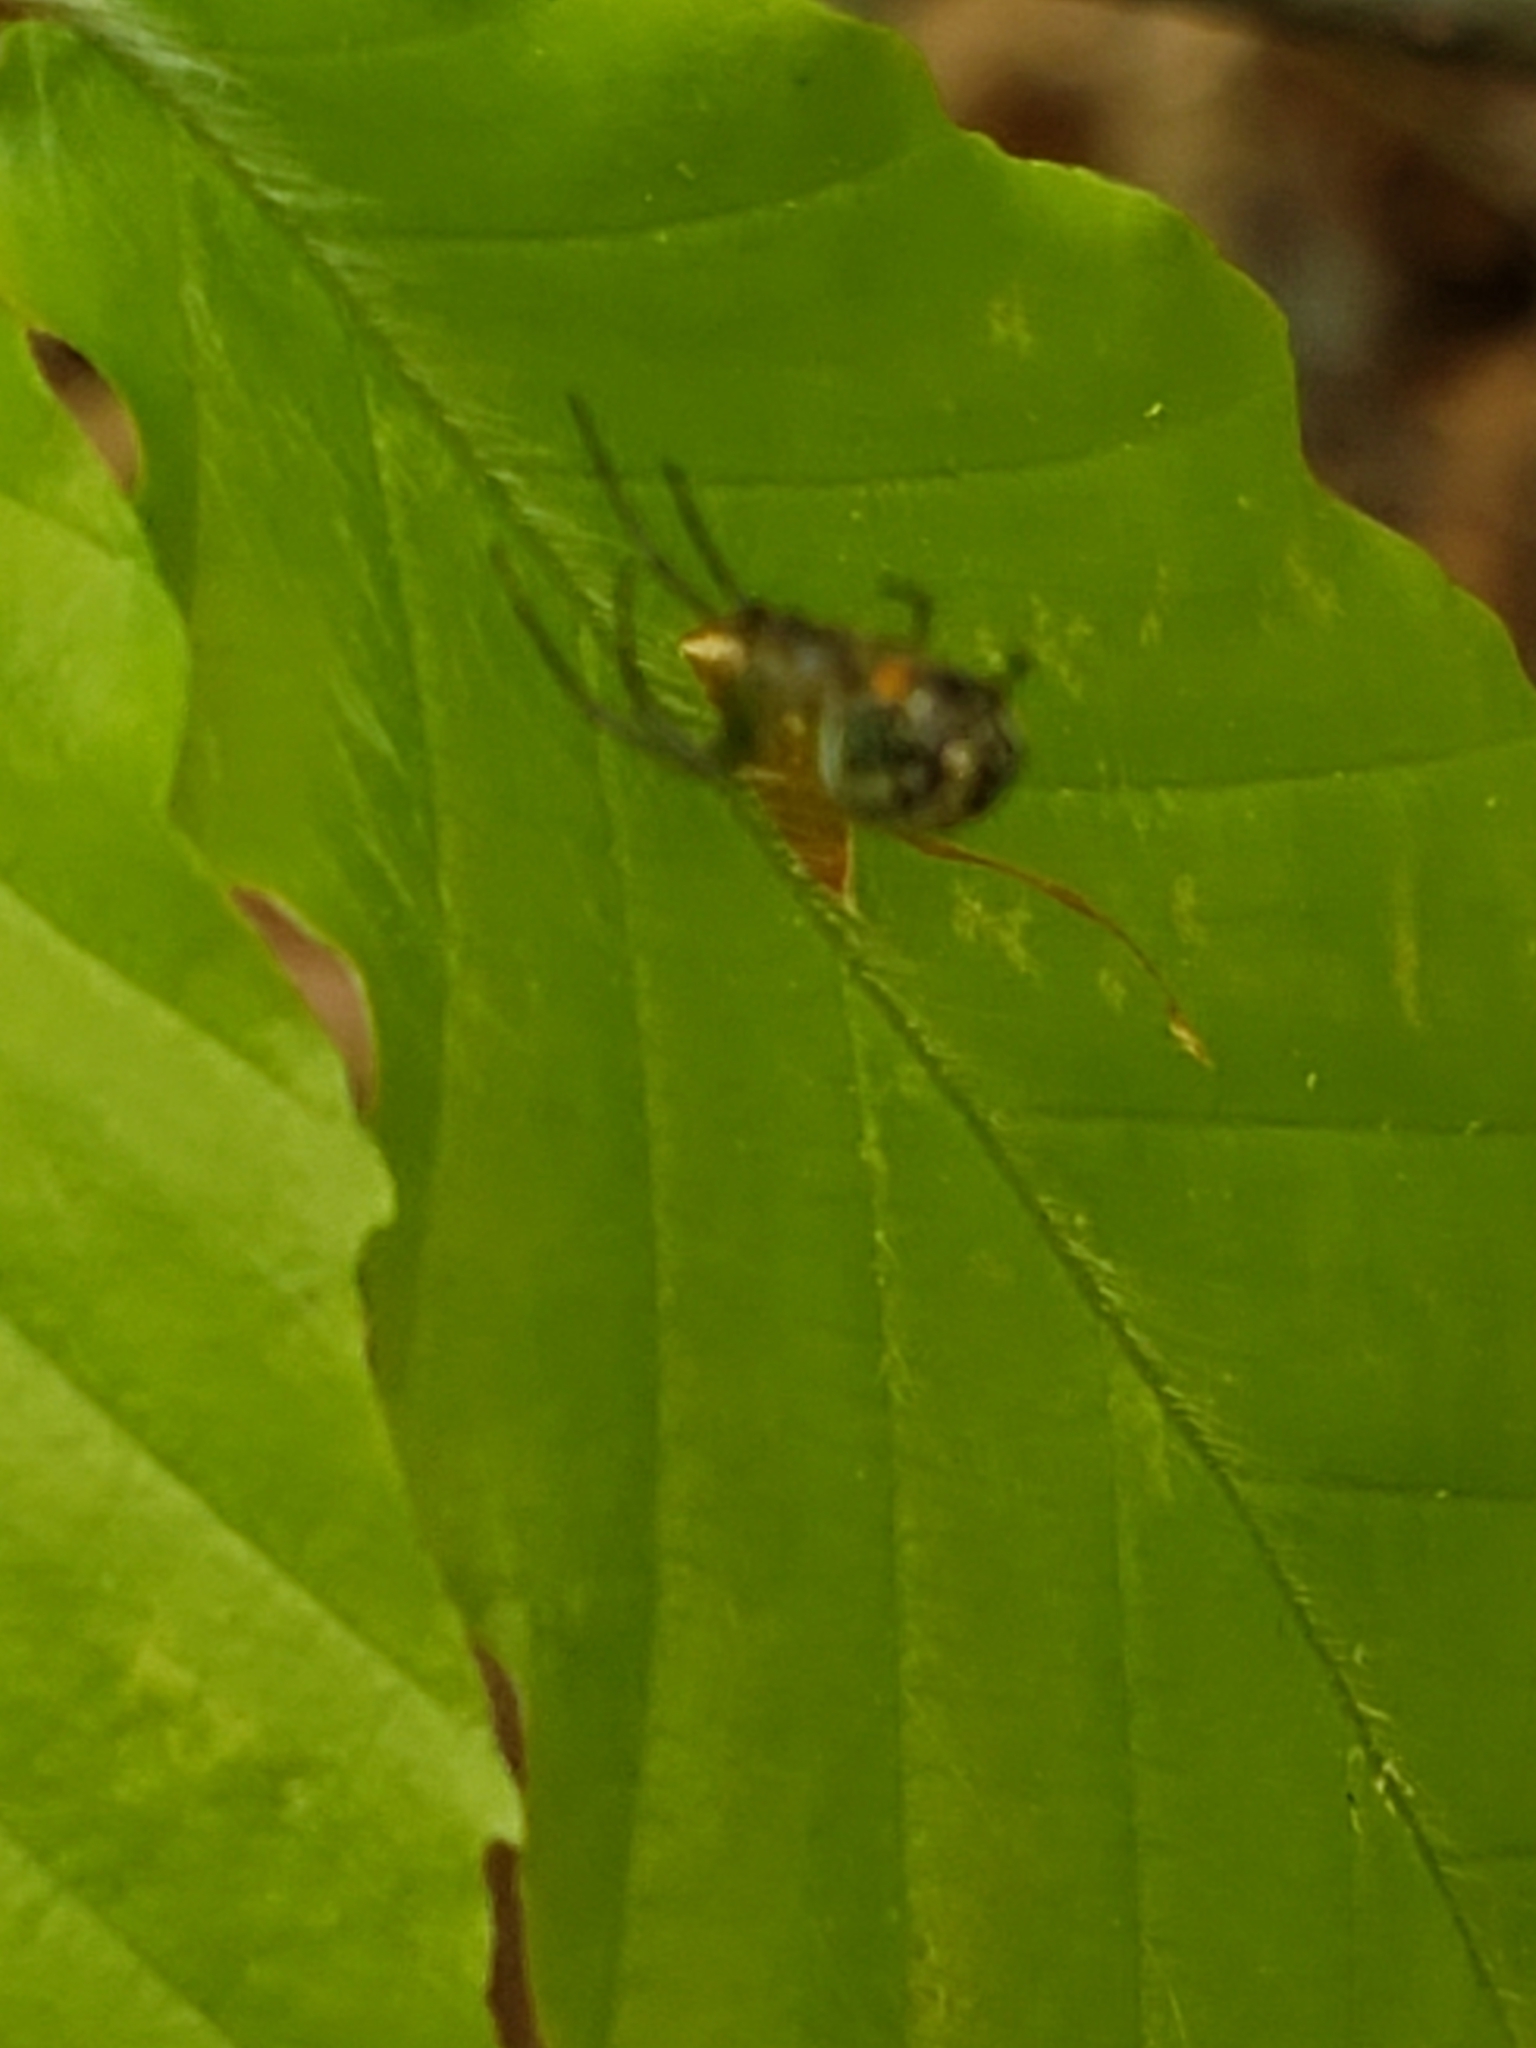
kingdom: Animalia
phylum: Arthropoda
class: Arachnida
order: Araneae
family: Tetragnathidae
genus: Leucauge
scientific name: Leucauge venusta
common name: Longjawed orb weavers
